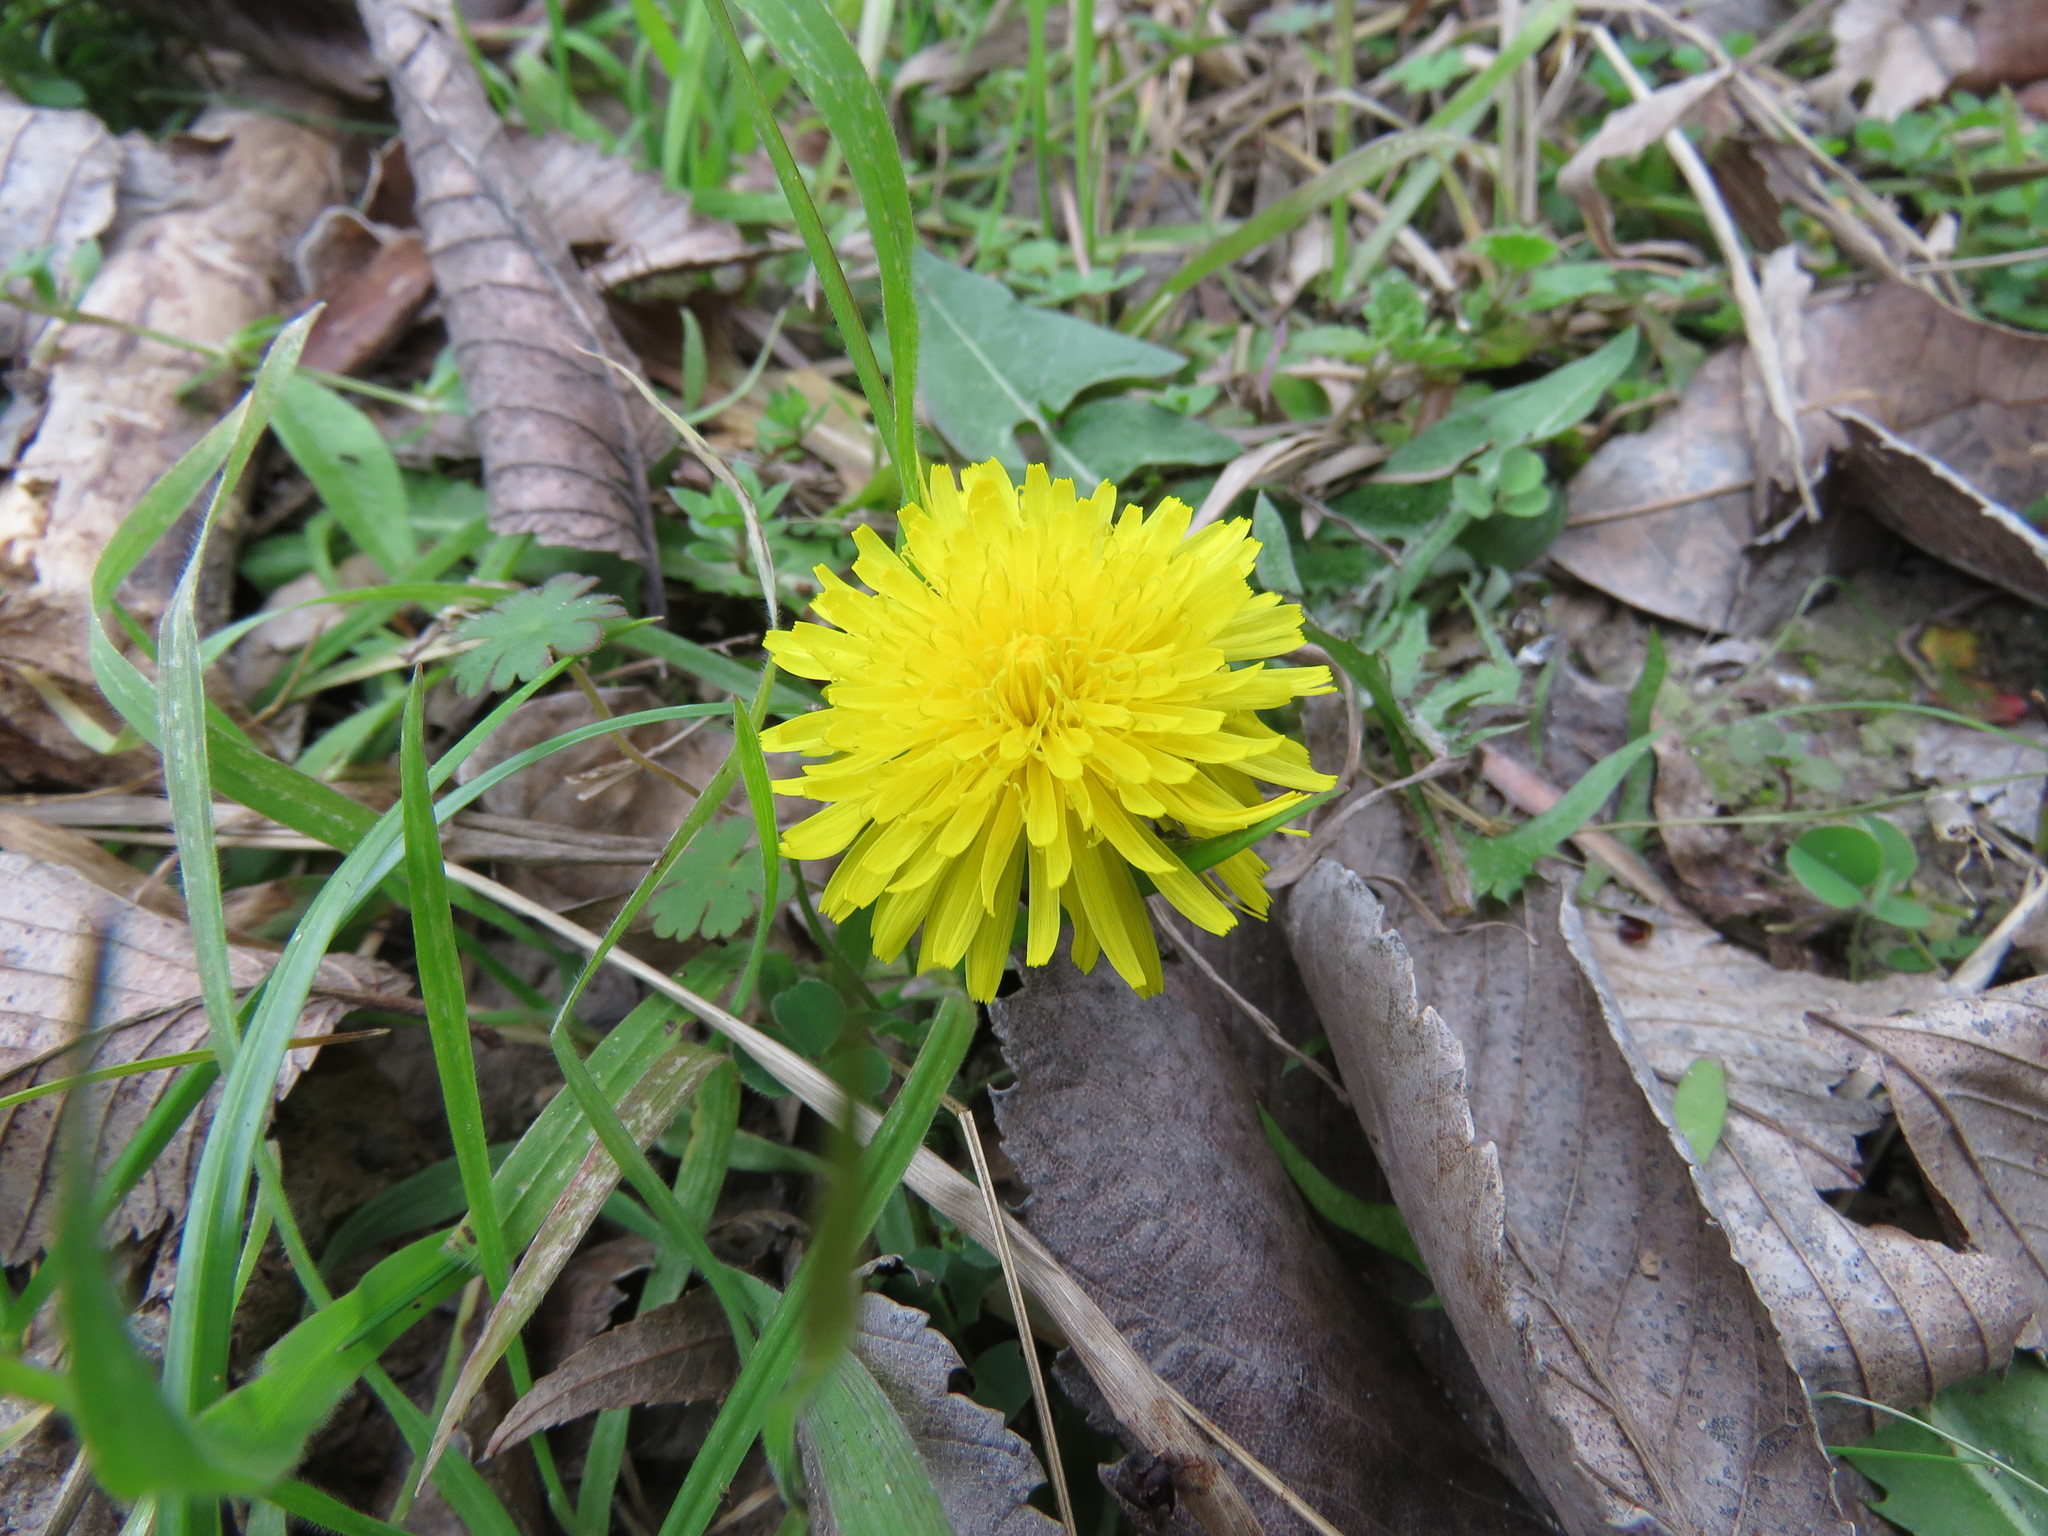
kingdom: Plantae
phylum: Tracheophyta
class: Magnoliopsida
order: Asterales
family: Asteraceae
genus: Taraxacum
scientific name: Taraxacum officinale
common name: Common dandelion
